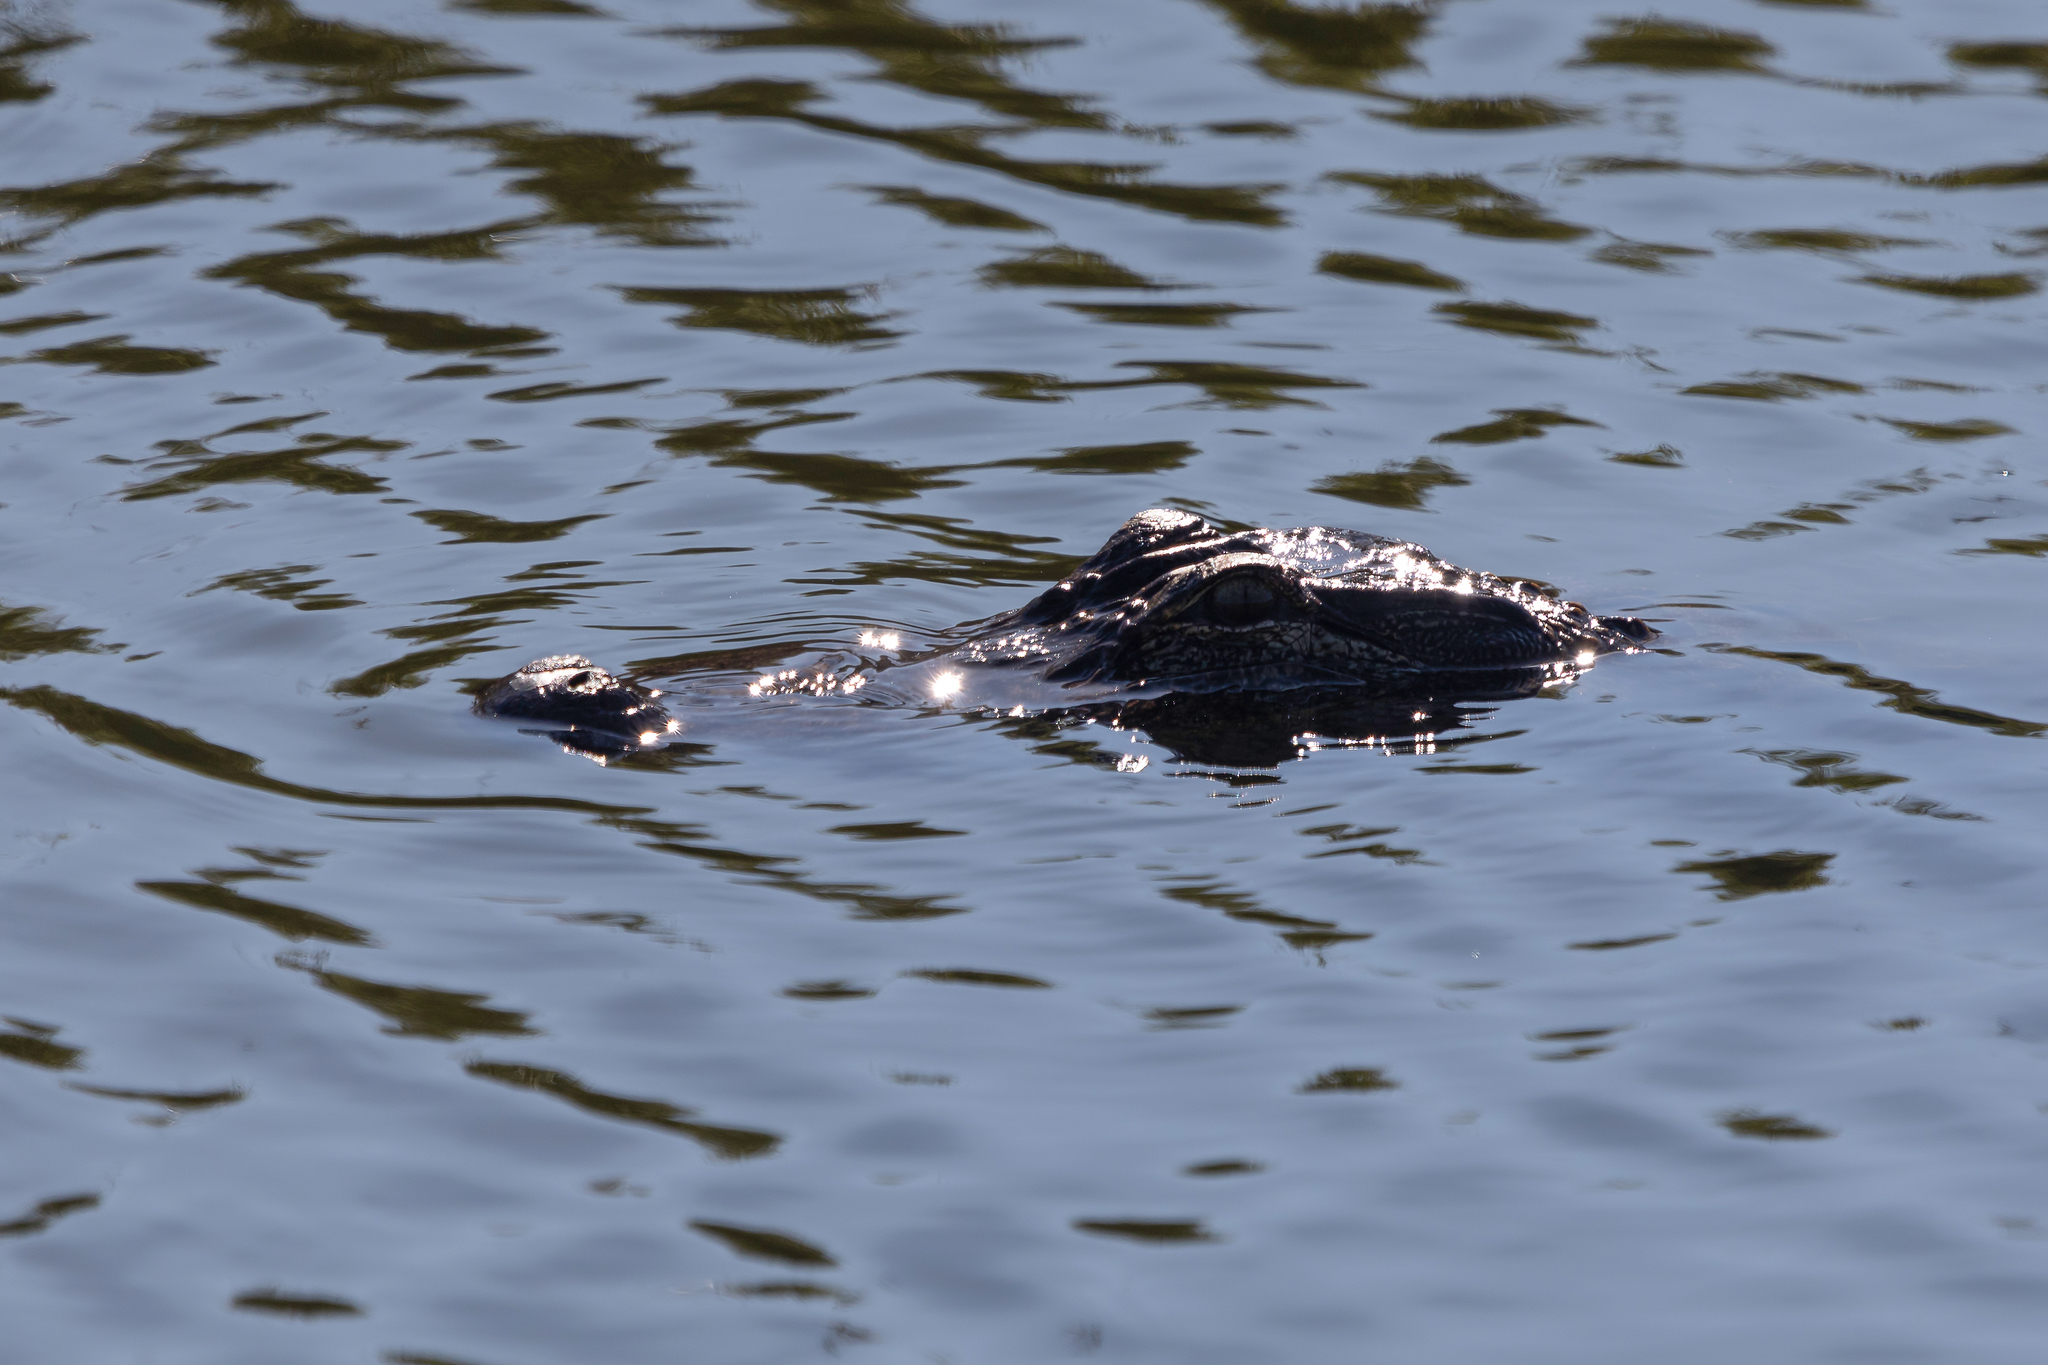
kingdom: Animalia
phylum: Chordata
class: Crocodylia
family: Alligatoridae
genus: Alligator
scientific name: Alligator mississippiensis
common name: American alligator
